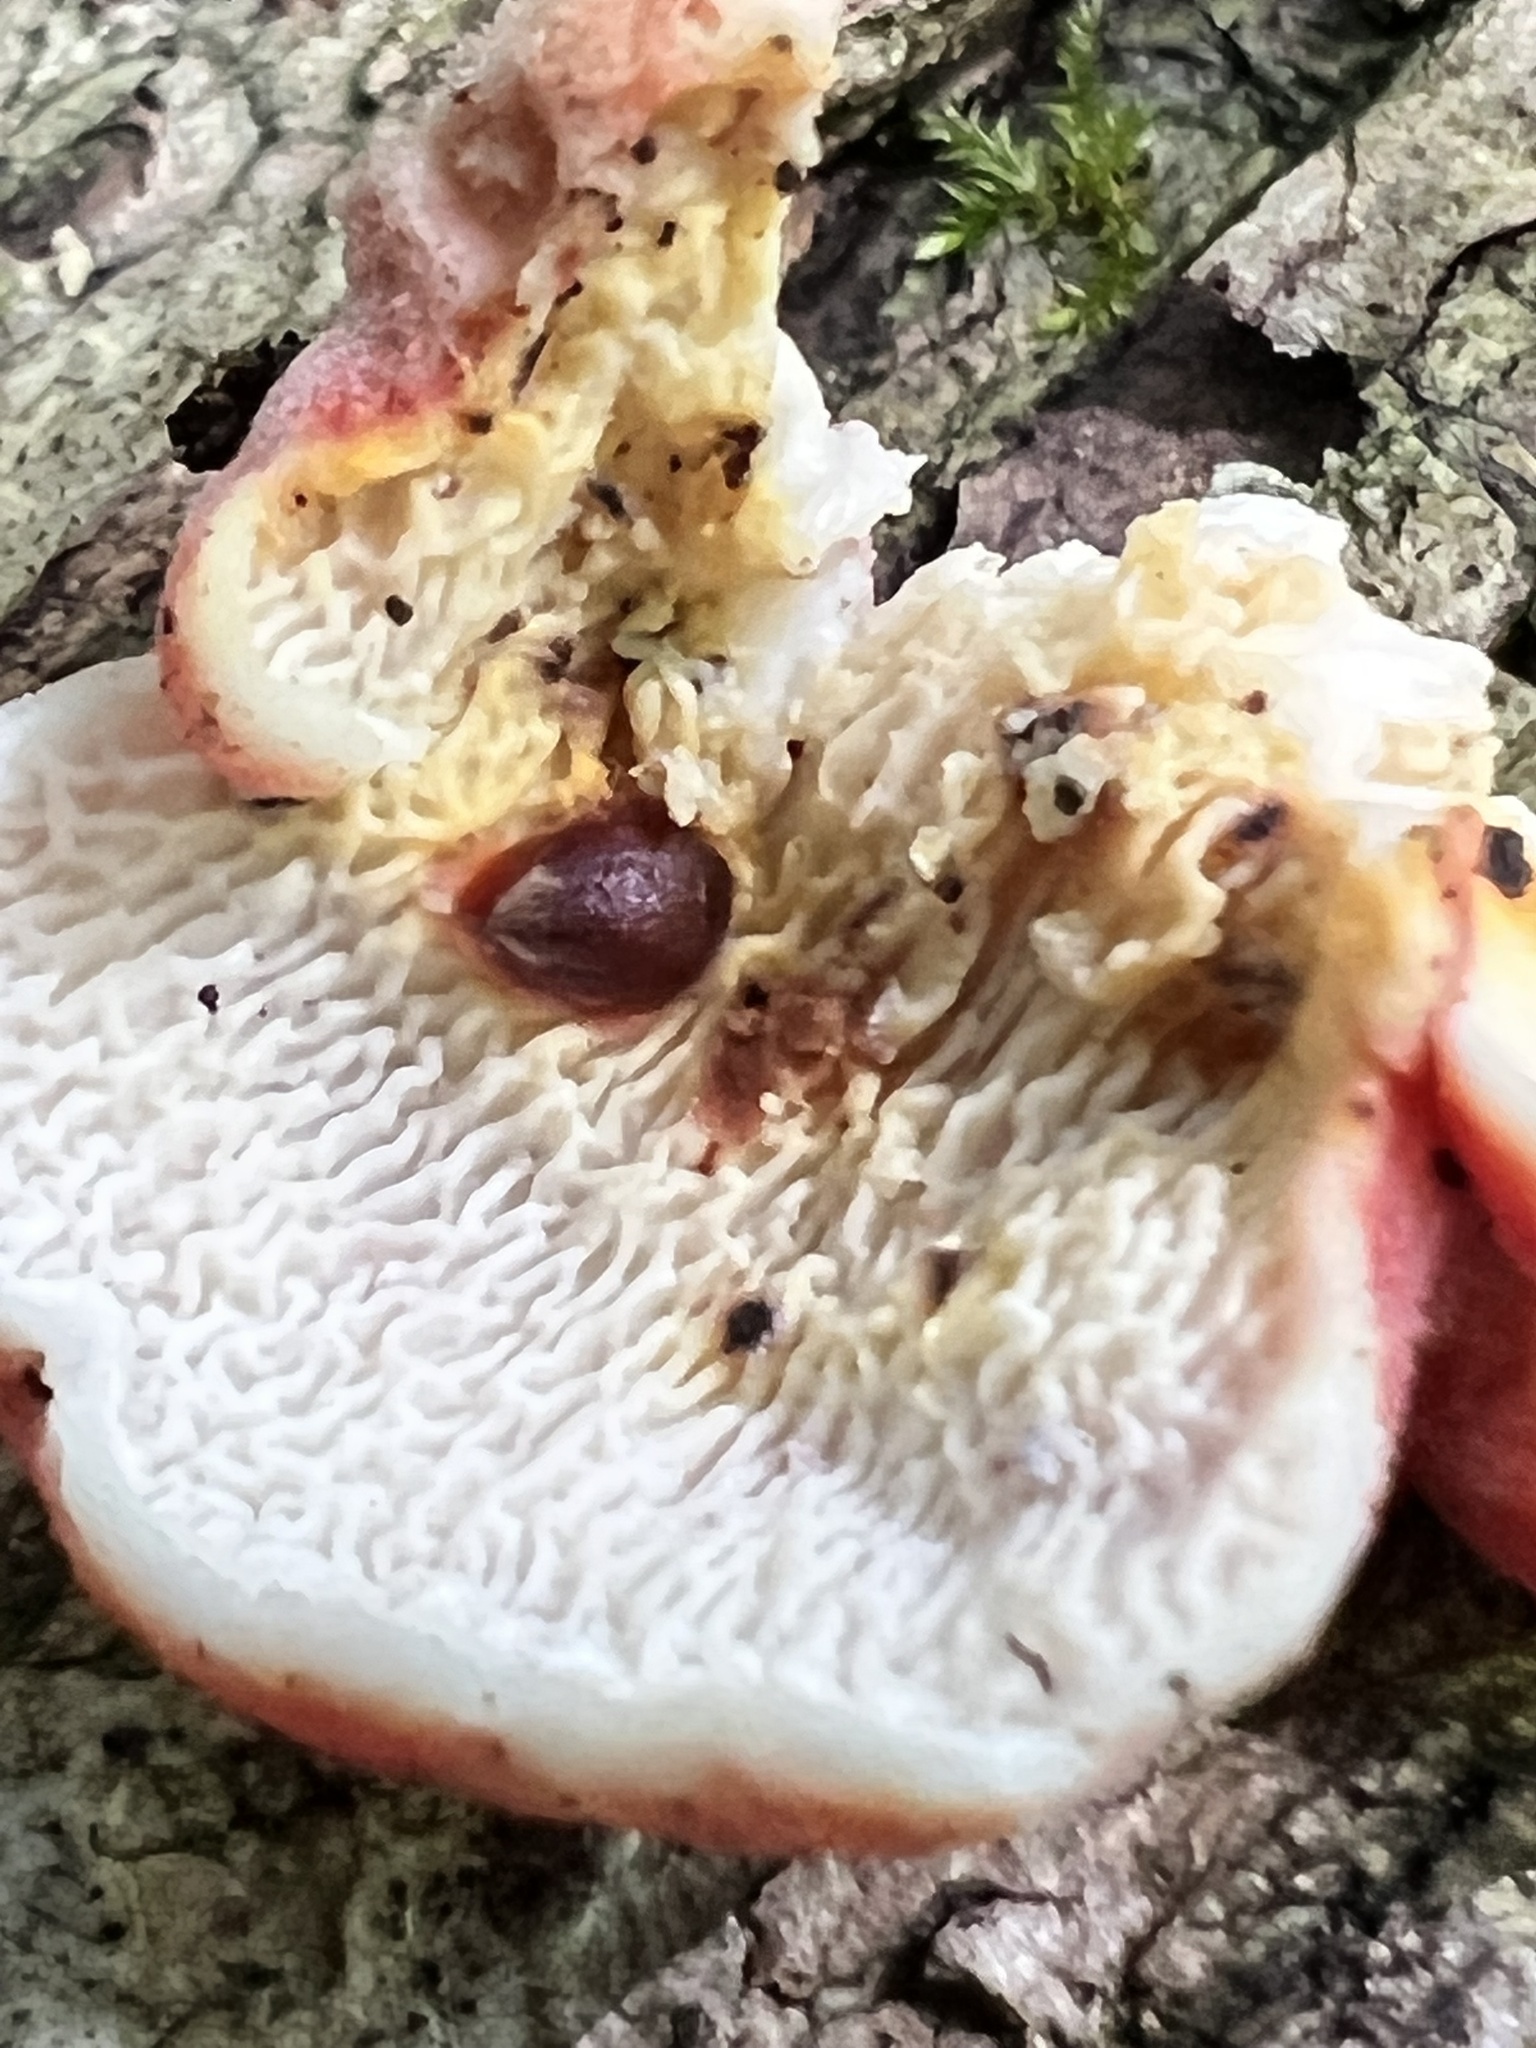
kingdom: Fungi
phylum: Basidiomycota
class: Agaricomycetes
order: Polyporales
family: Irpicaceae
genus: Byssomerulius
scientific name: Byssomerulius incarnatus
